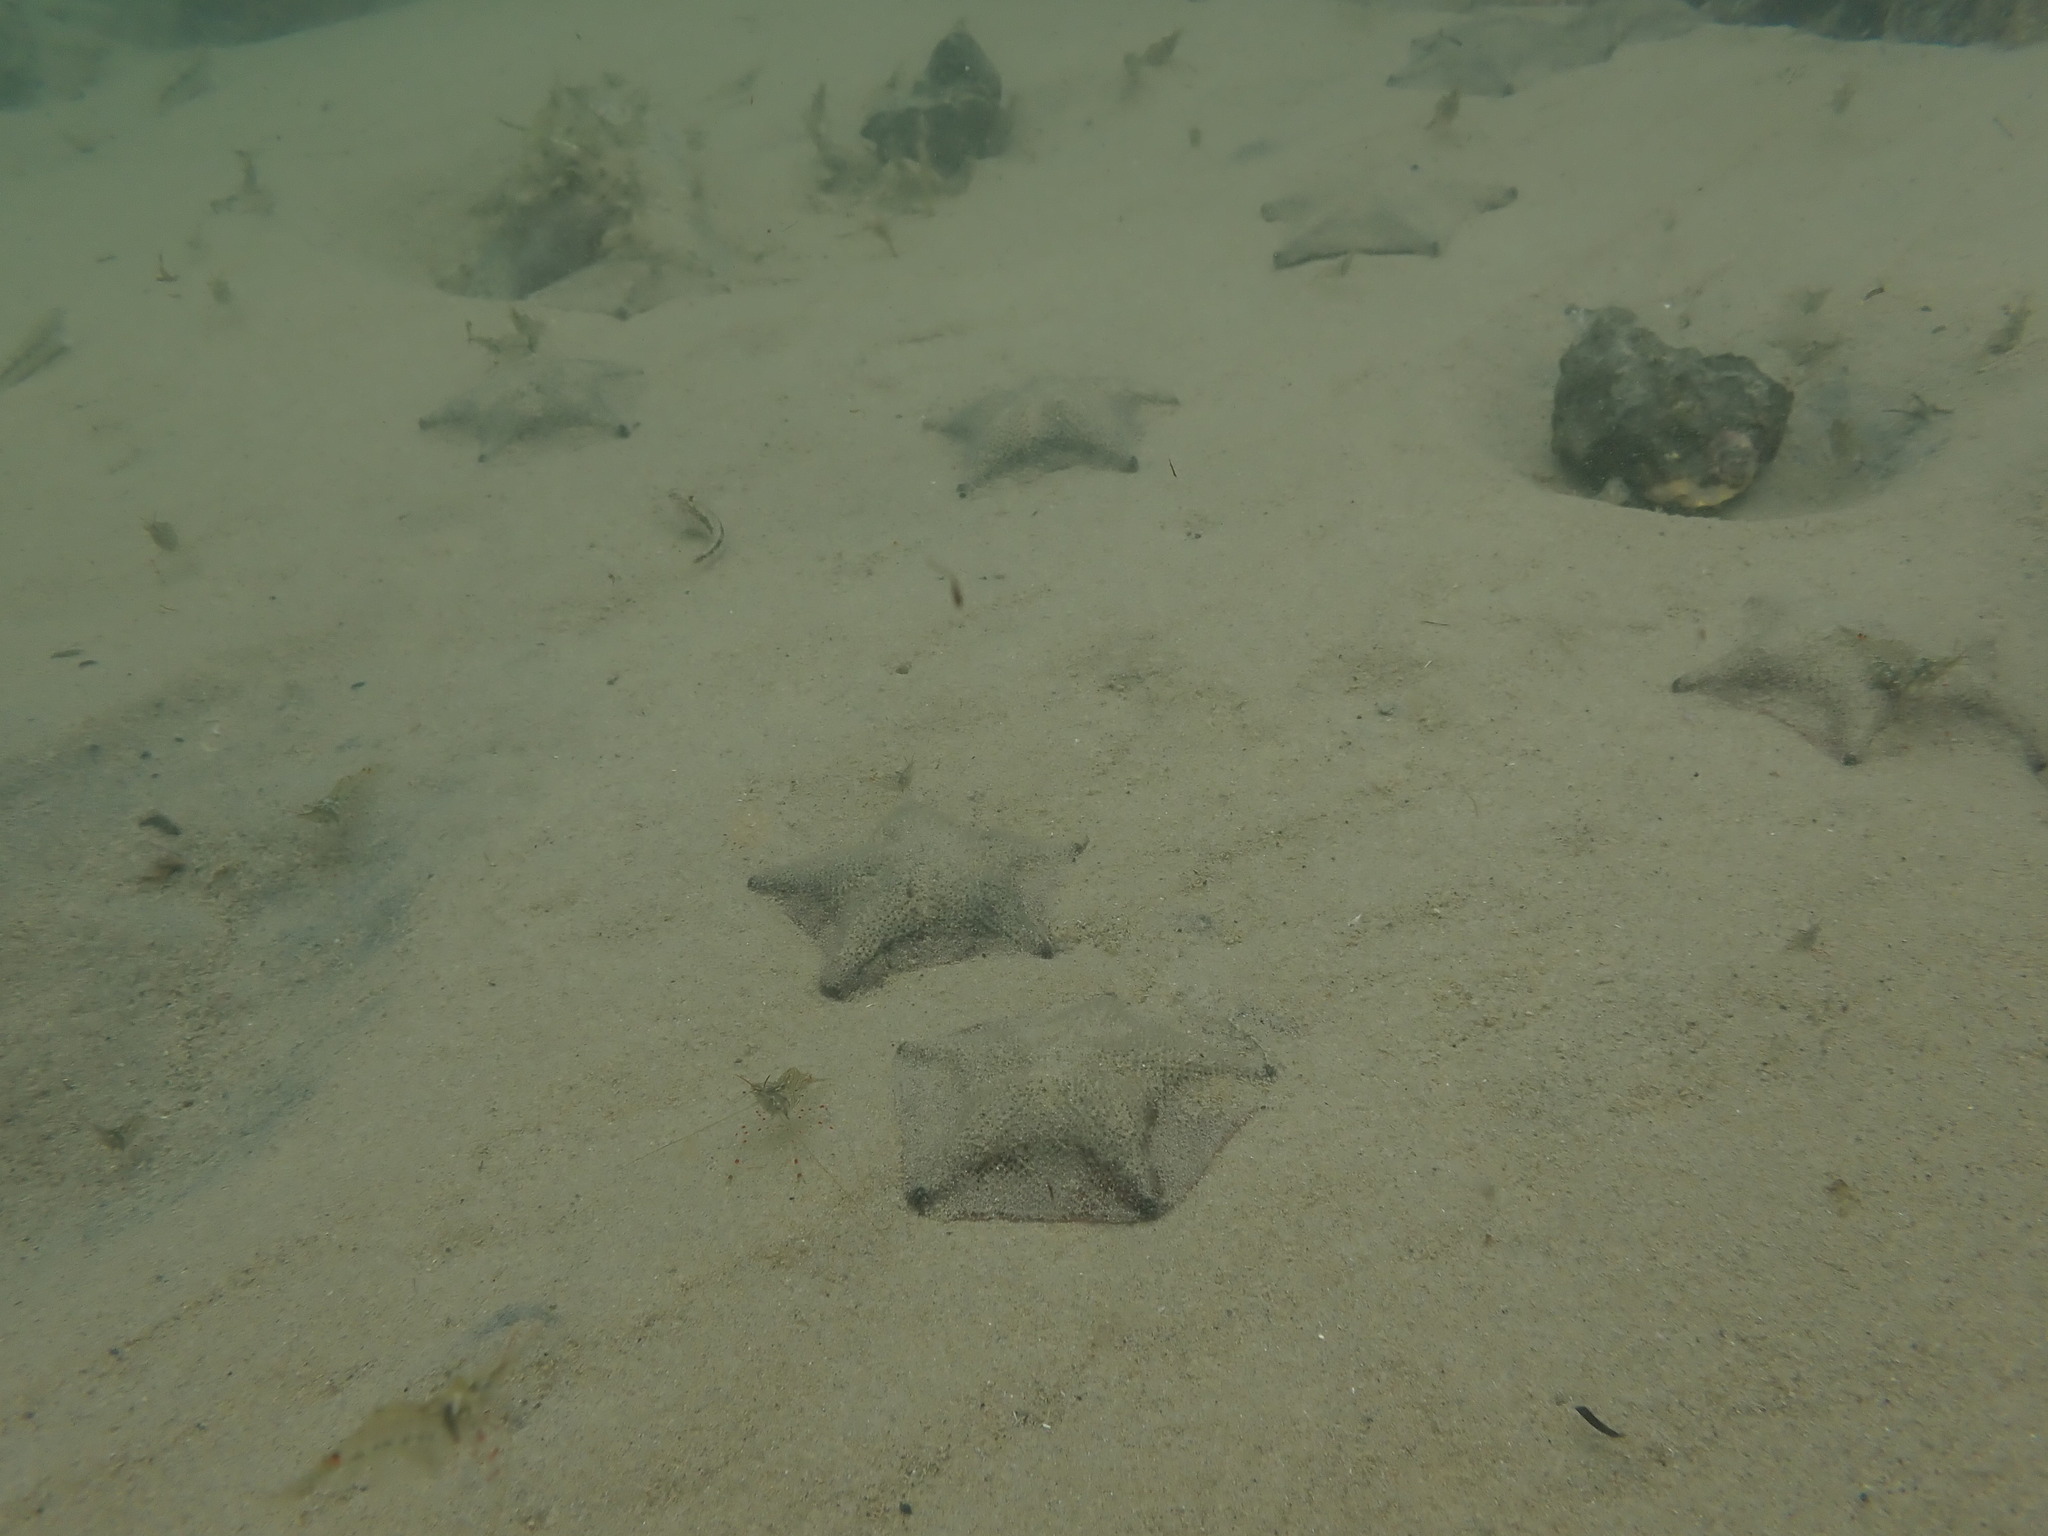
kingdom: Animalia
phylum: Echinodermata
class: Asteroidea
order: Valvatida
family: Asterinidae
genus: Patiriella
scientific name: Patiriella regularis
